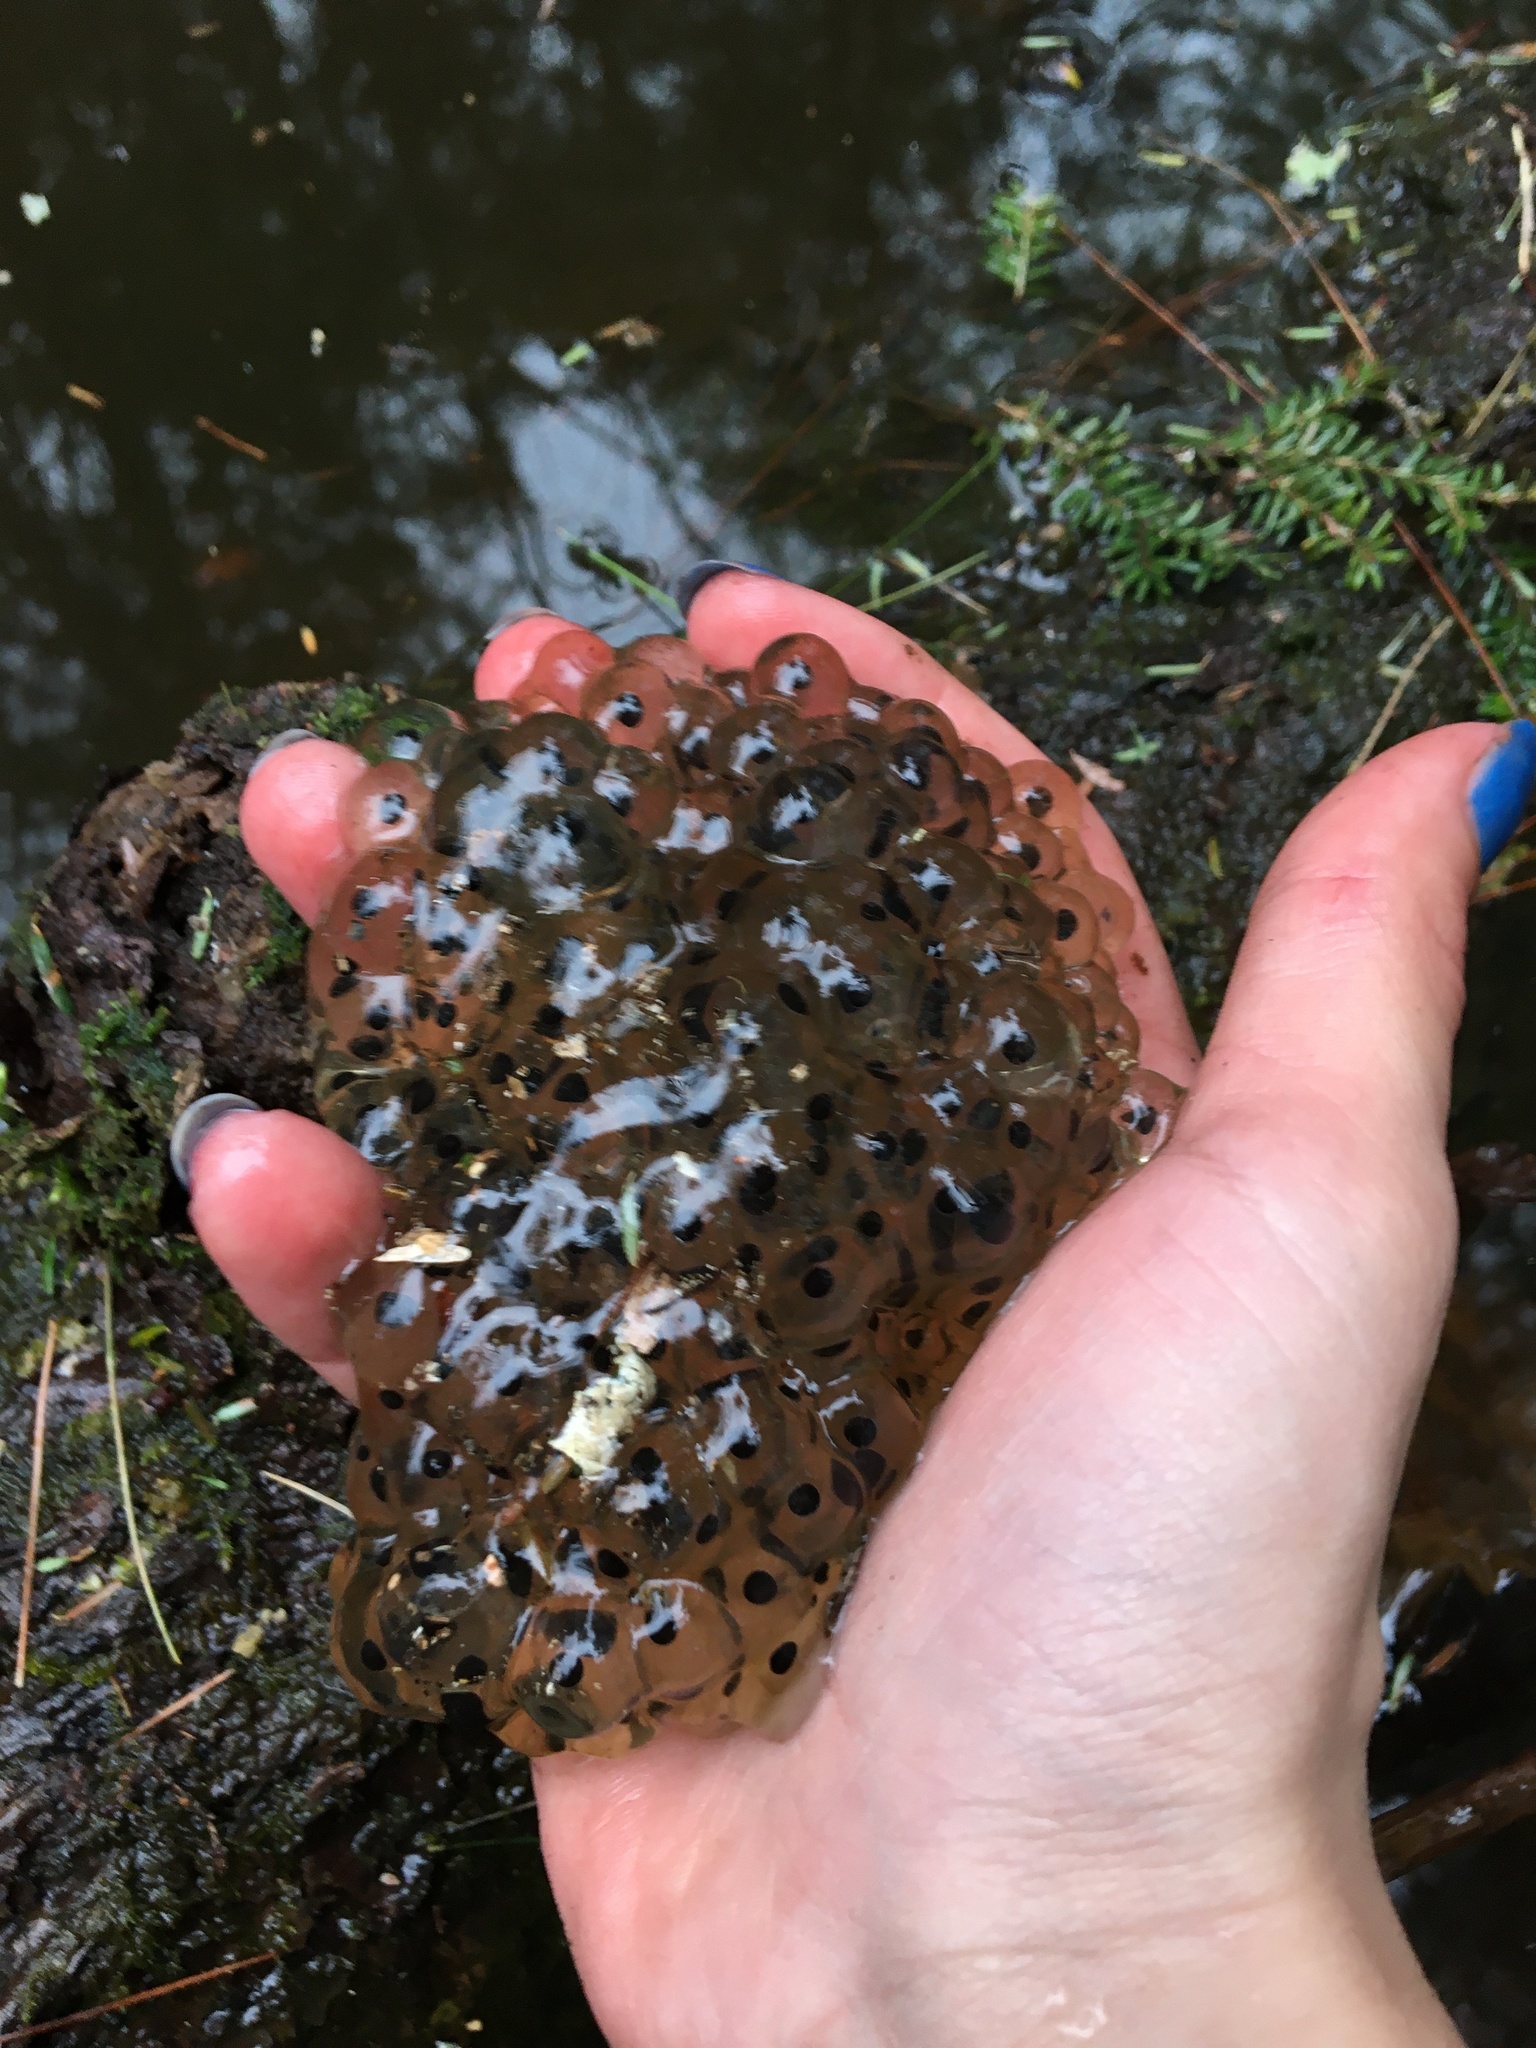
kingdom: Animalia
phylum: Chordata
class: Amphibia
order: Anura
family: Ranidae
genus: Lithobates
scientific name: Lithobates sylvaticus
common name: Wood frog
